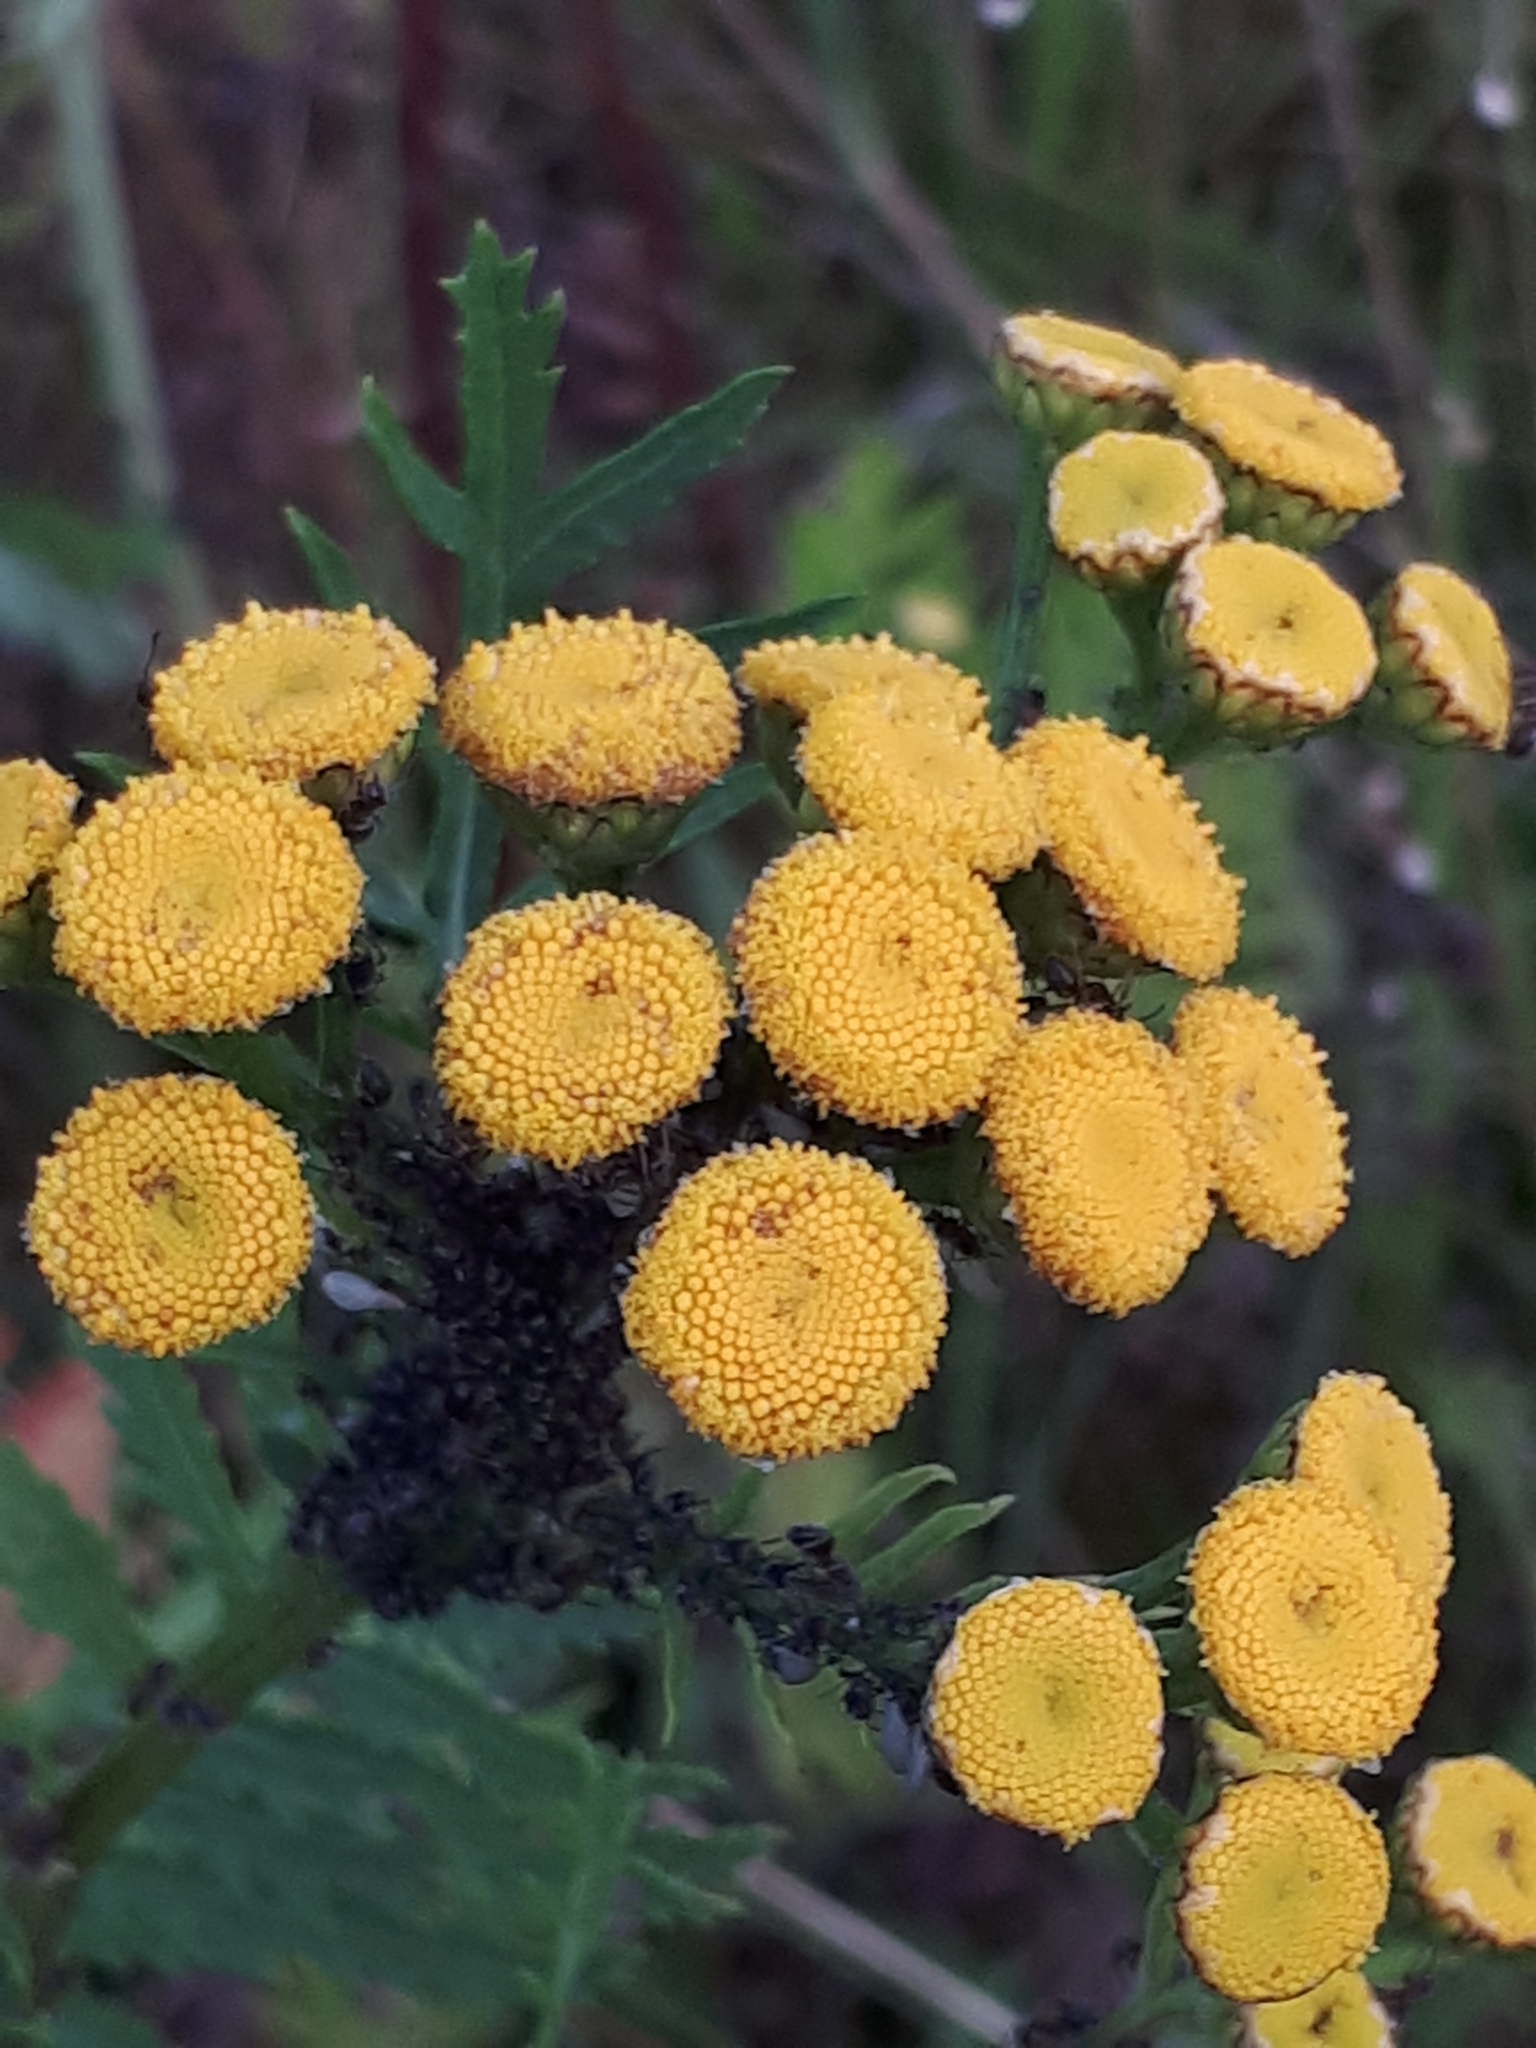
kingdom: Plantae
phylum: Tracheophyta
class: Magnoliopsida
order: Asterales
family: Asteraceae
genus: Tanacetum
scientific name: Tanacetum vulgare
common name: Common tansy
